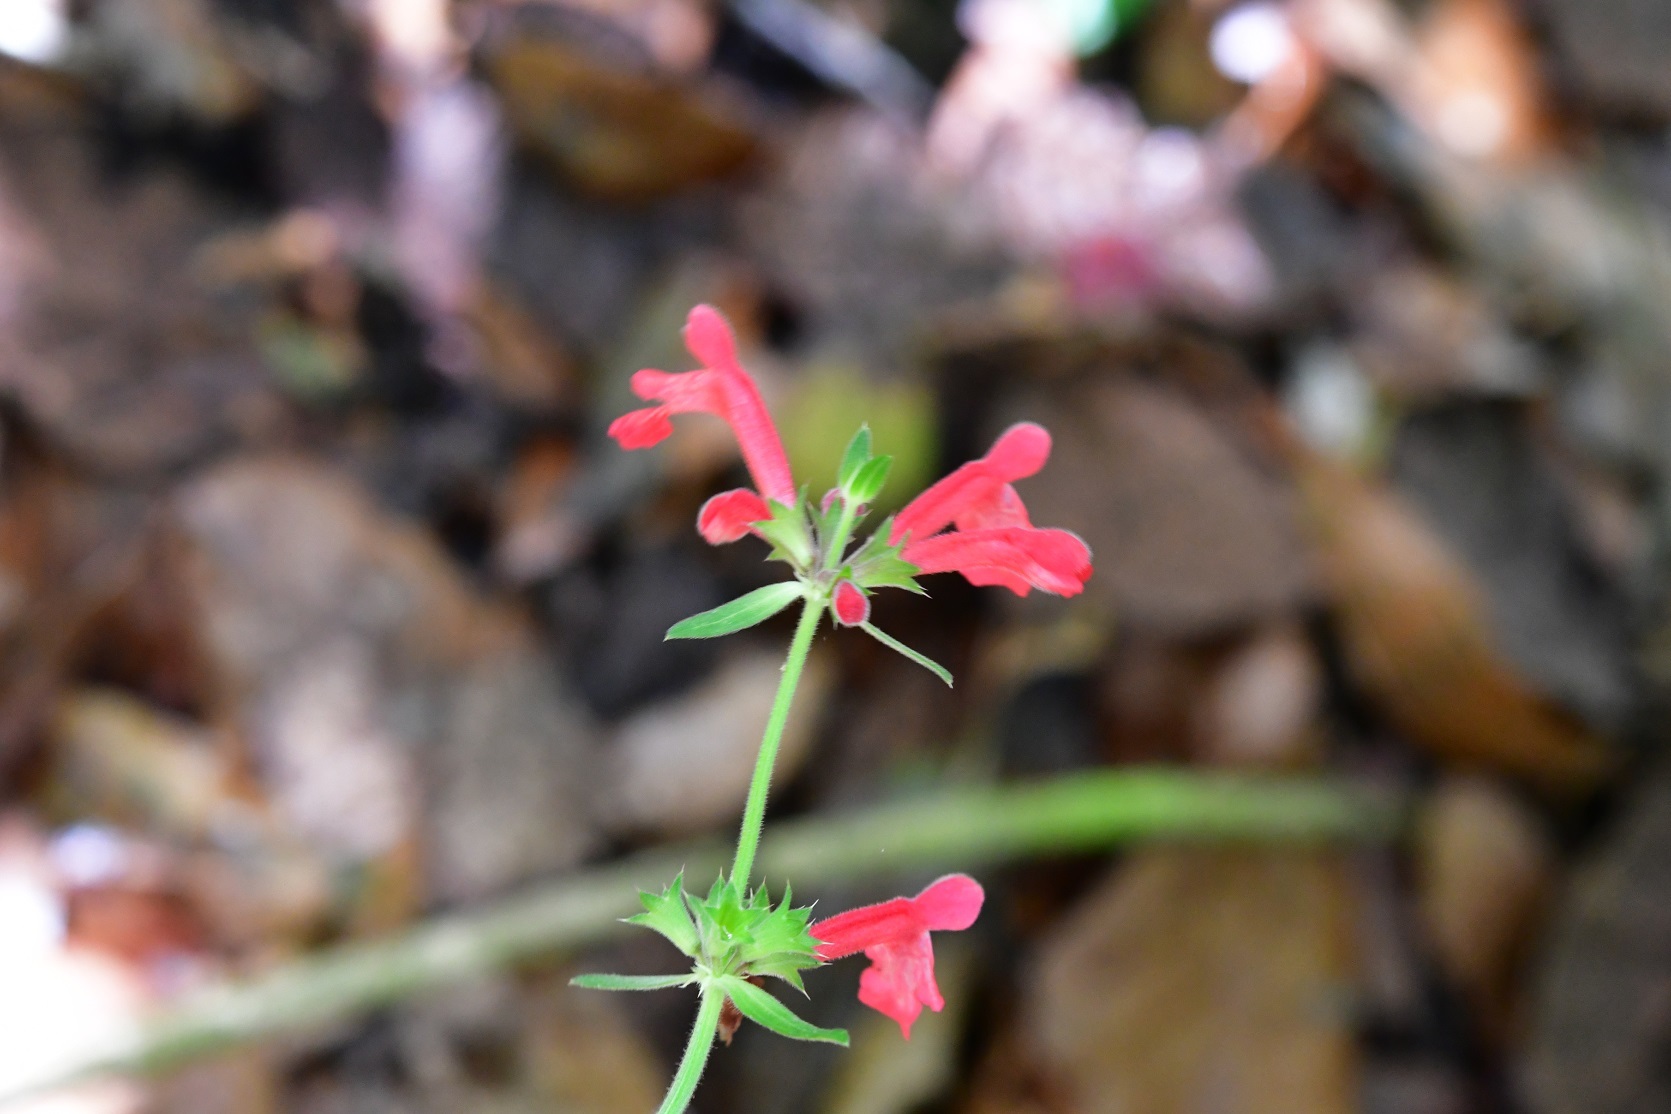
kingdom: Plantae
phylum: Tracheophyta
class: Magnoliopsida
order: Lamiales
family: Lamiaceae
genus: Stachys
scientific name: Stachys coccinea
